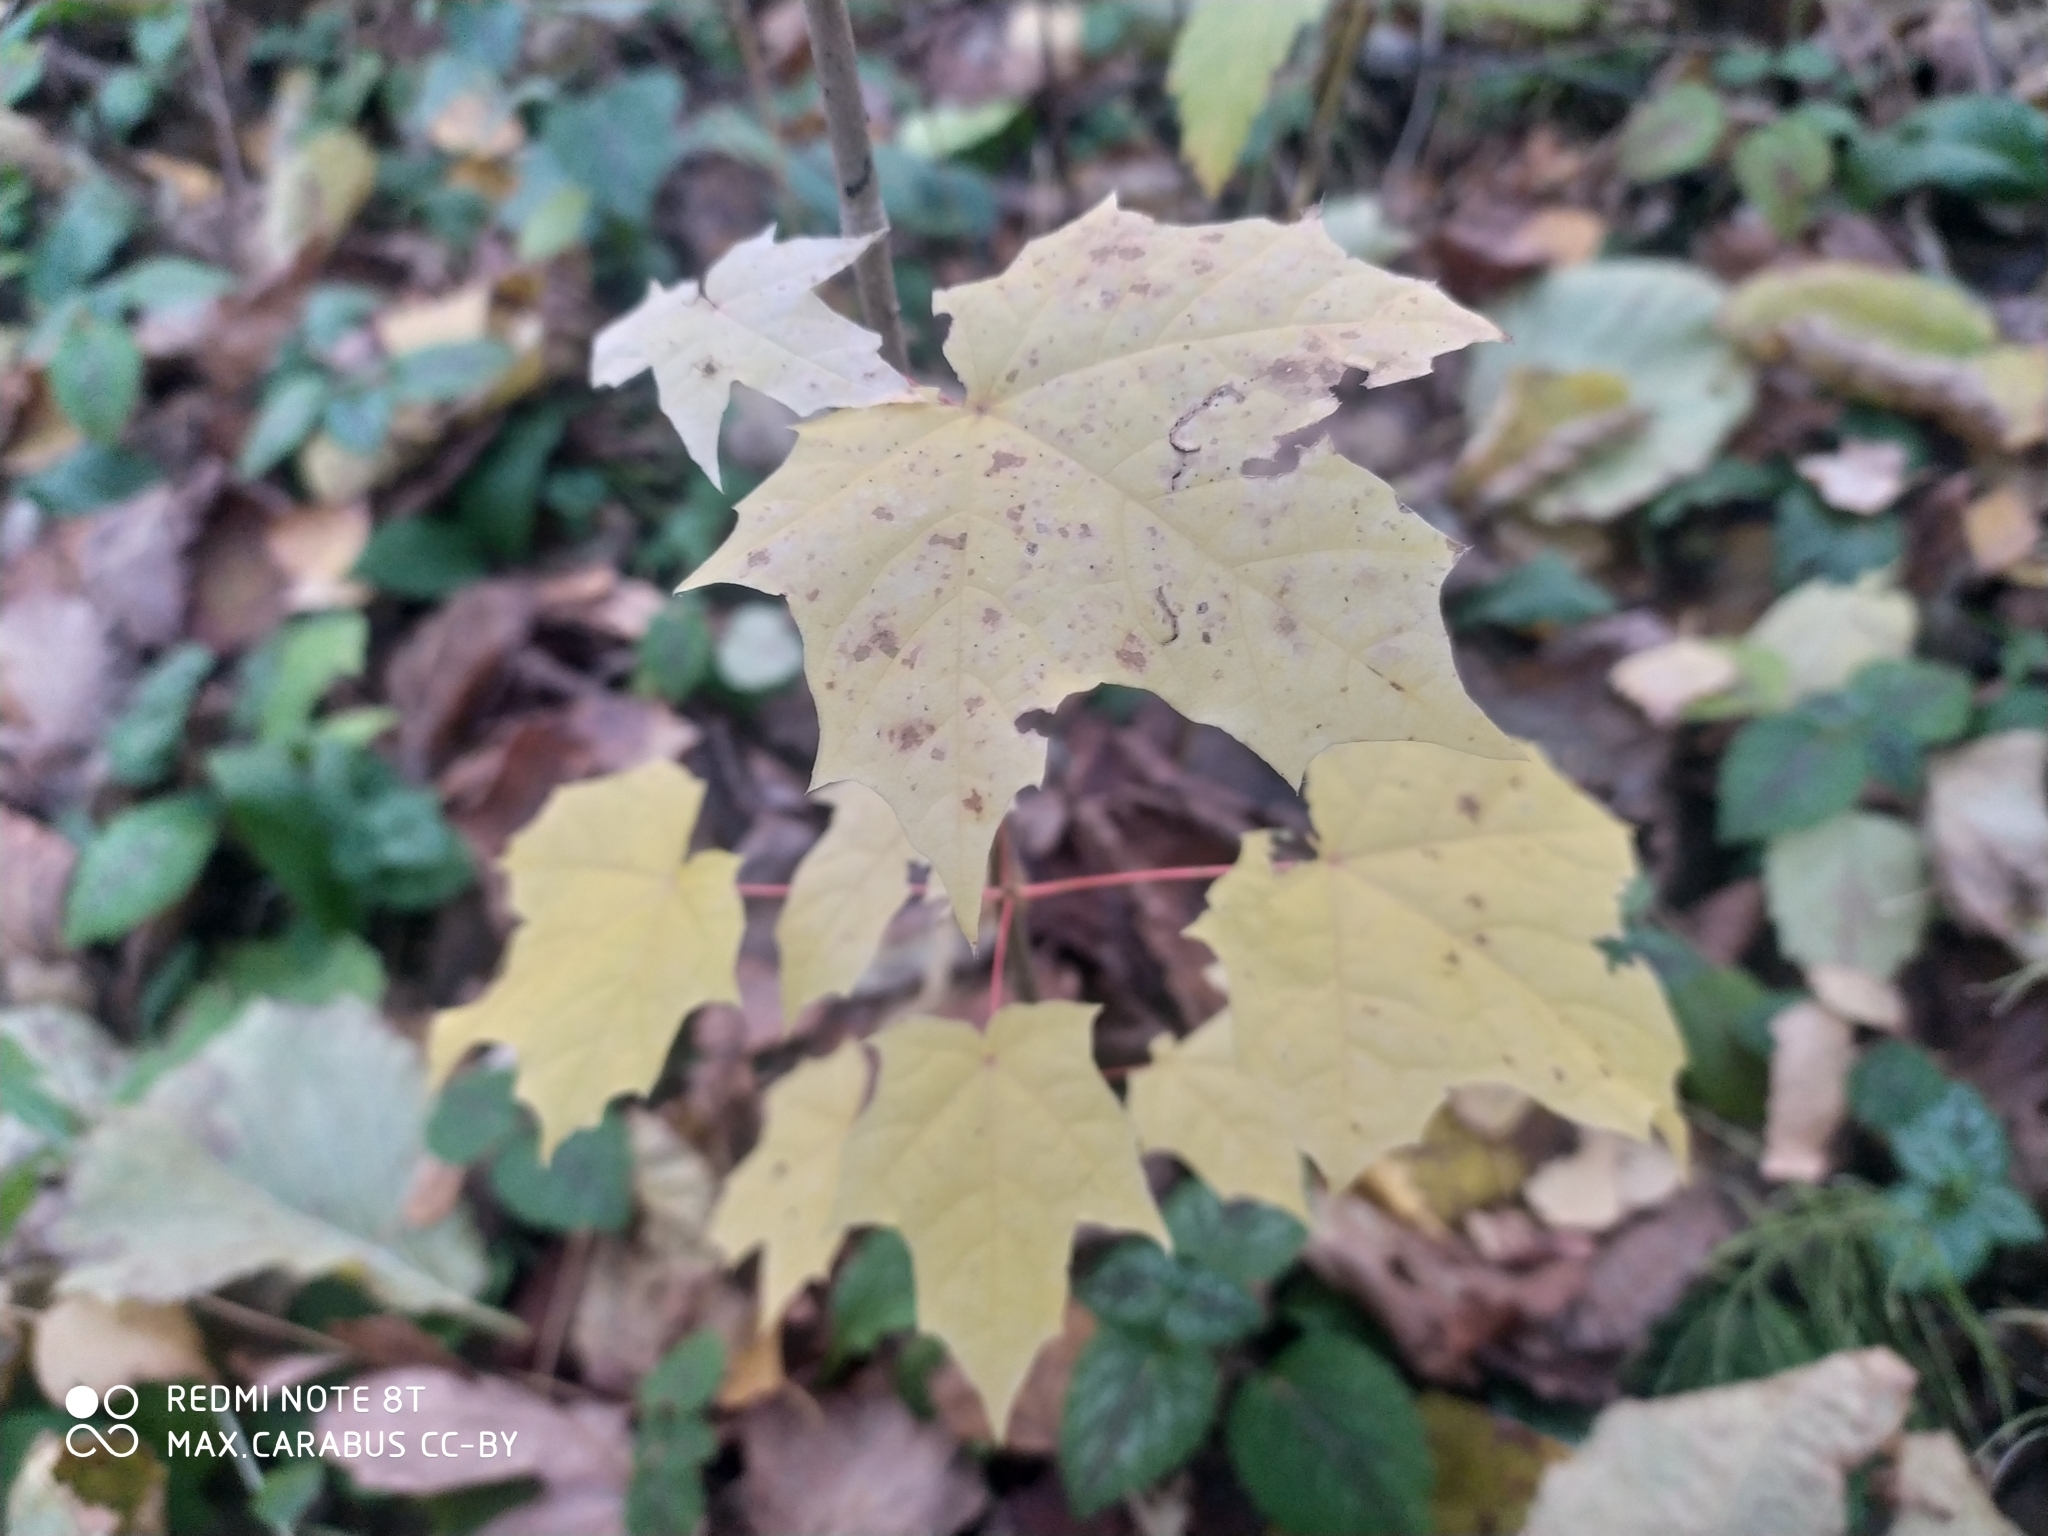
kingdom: Plantae
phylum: Tracheophyta
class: Magnoliopsida
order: Sapindales
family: Sapindaceae
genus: Acer
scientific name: Acer platanoides
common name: Norway maple
